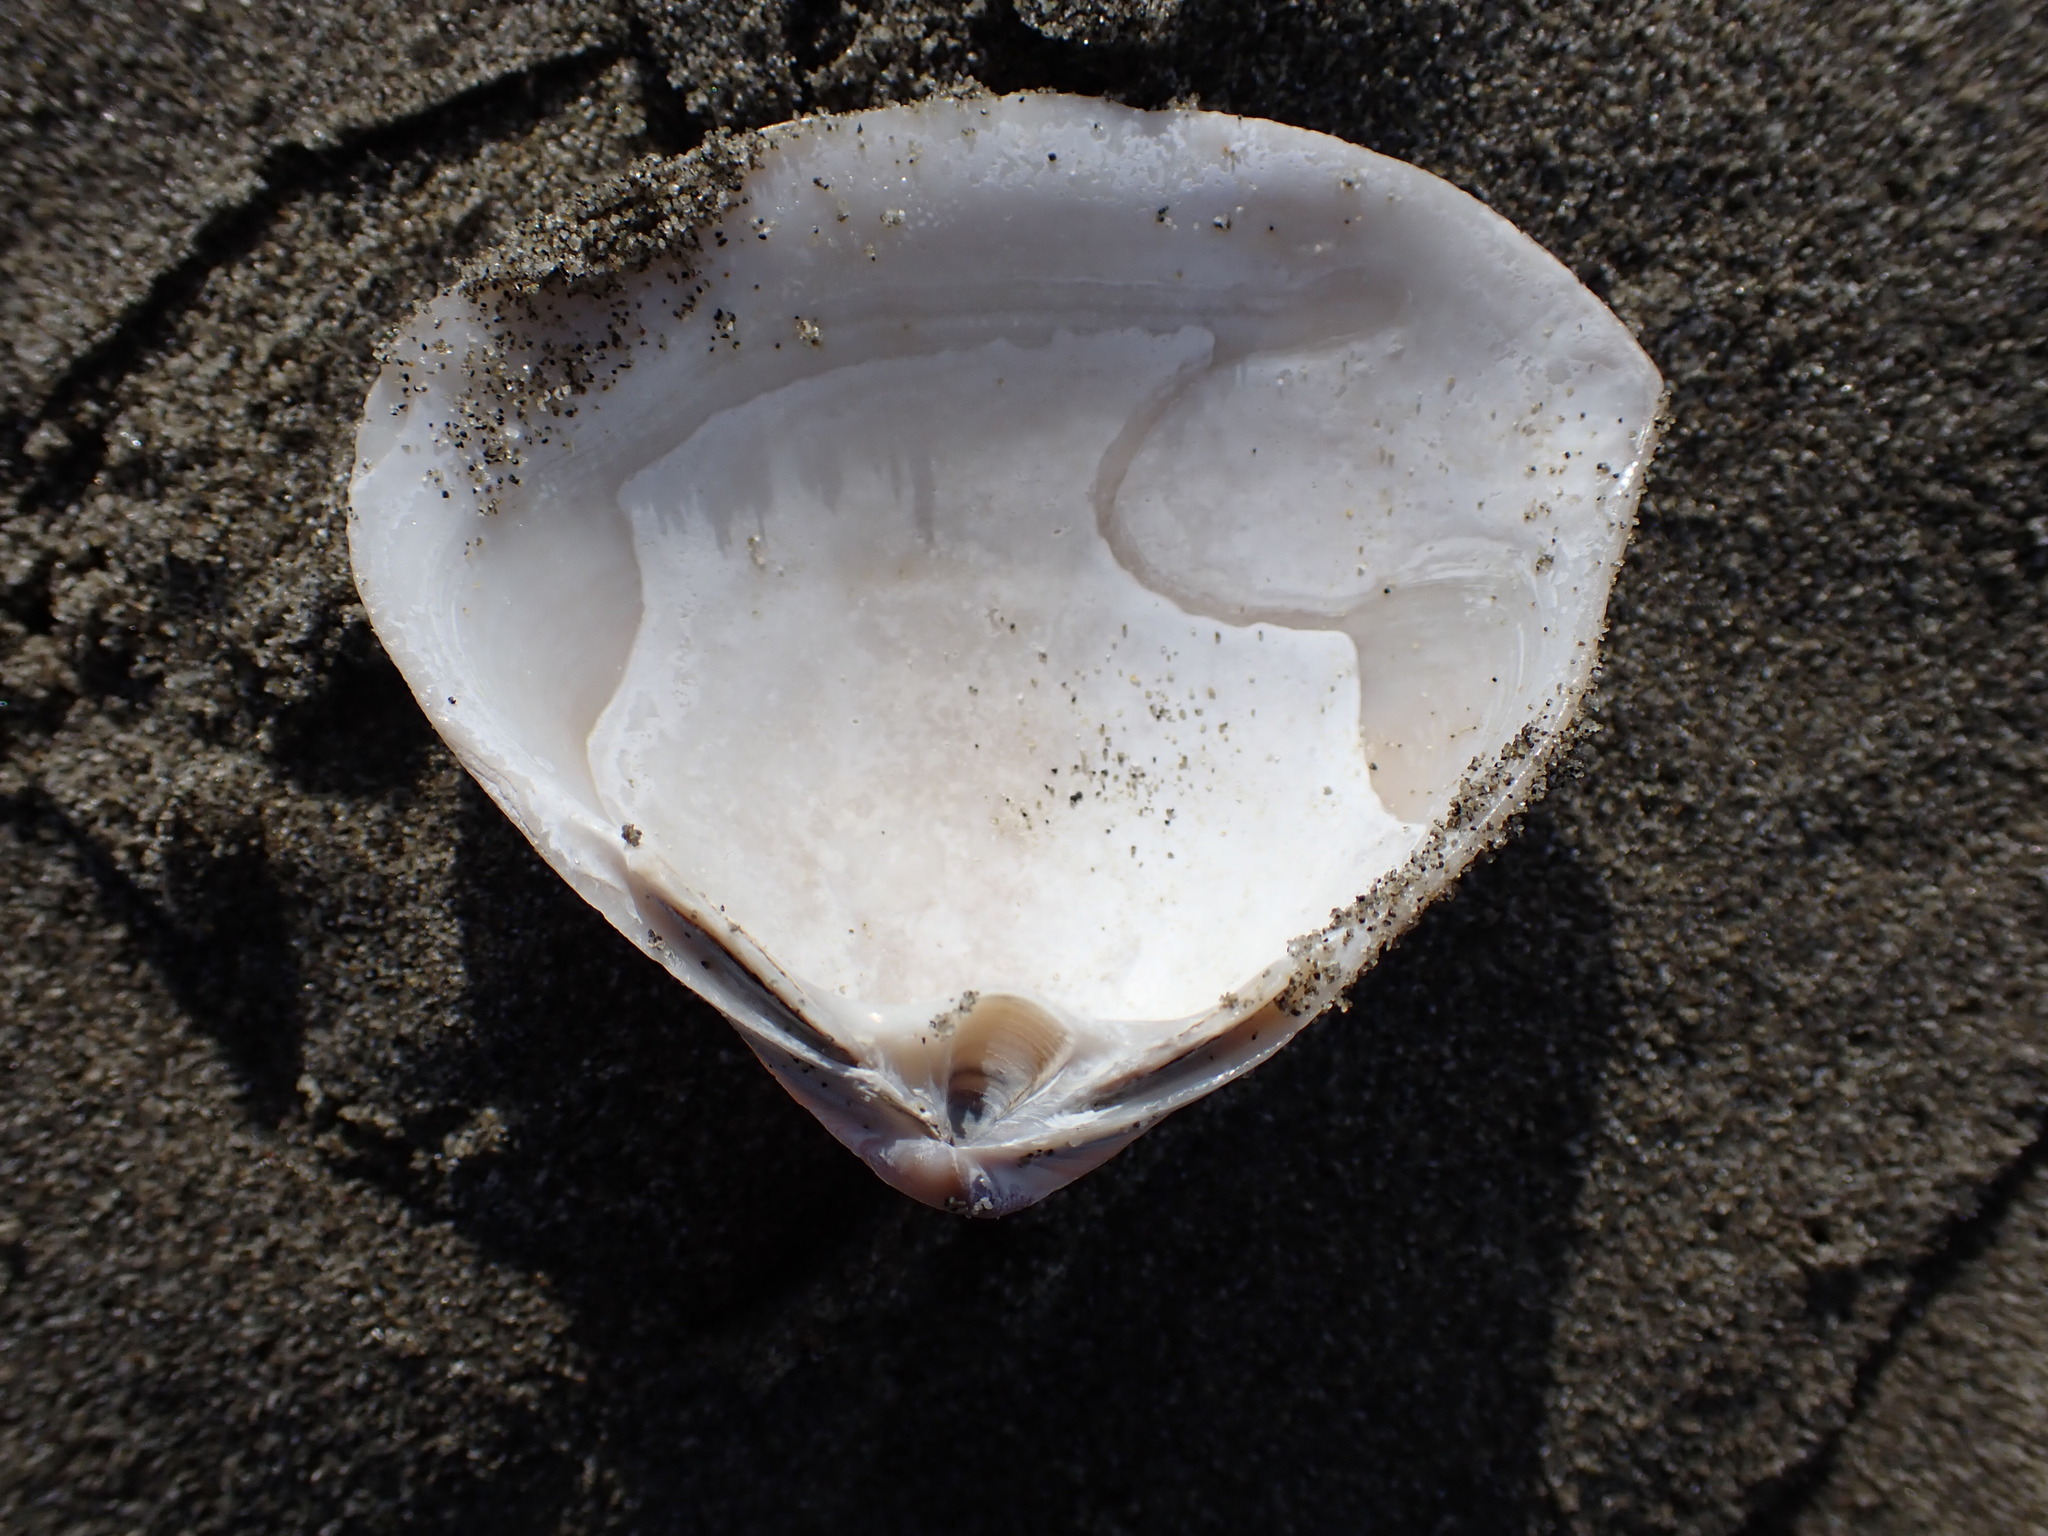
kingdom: Animalia
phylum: Mollusca
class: Bivalvia
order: Venerida
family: Mactridae
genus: Crassula
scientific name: Crassula aequilatera
